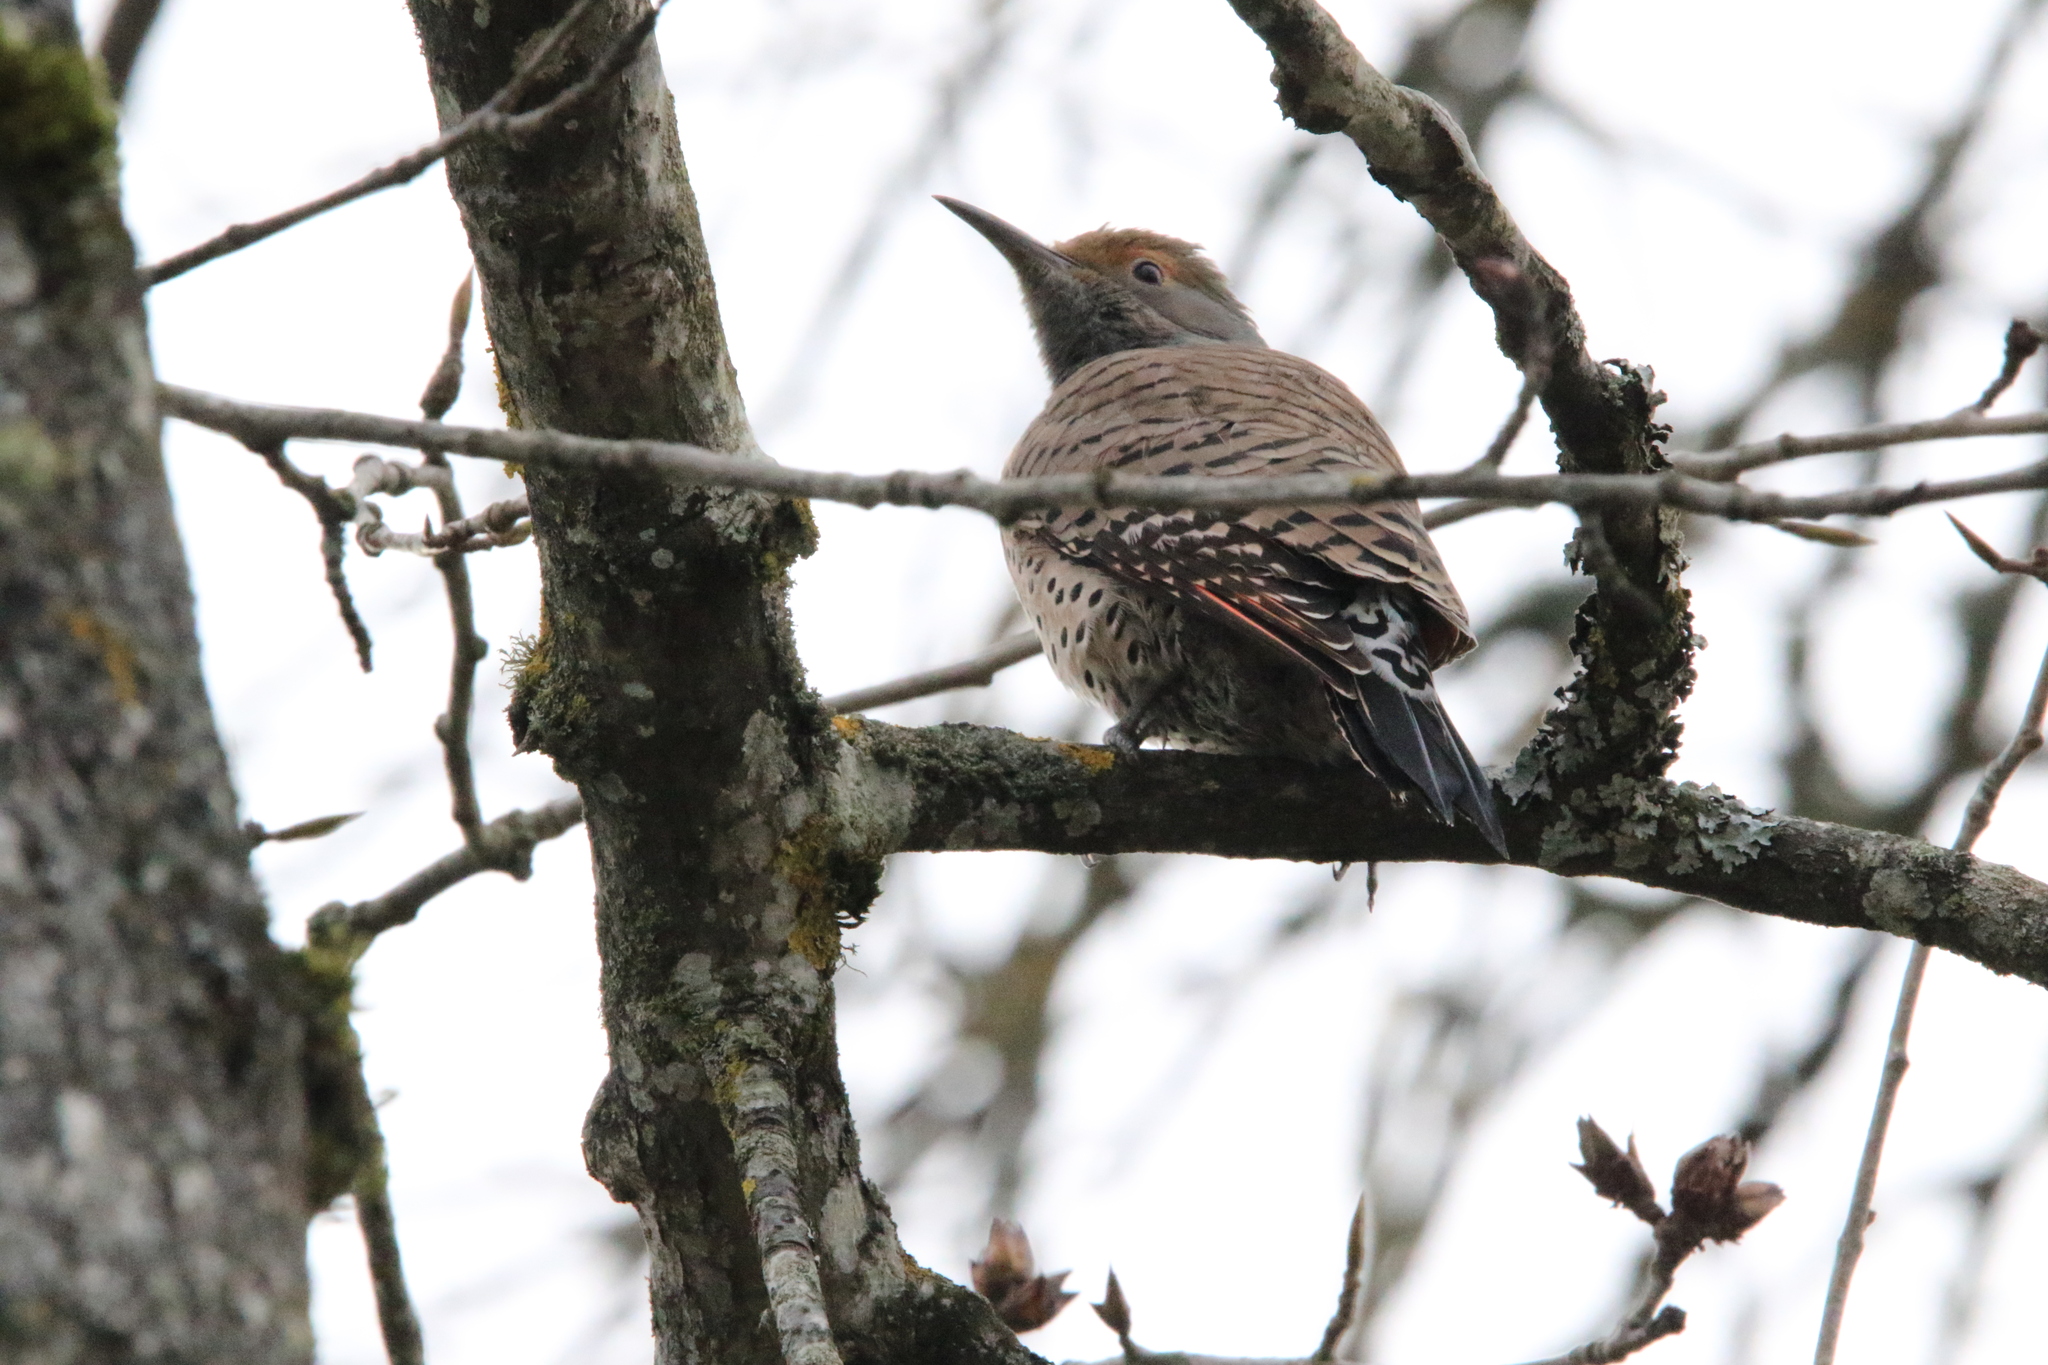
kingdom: Animalia
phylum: Chordata
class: Aves
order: Piciformes
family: Picidae
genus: Colaptes
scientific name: Colaptes auratus
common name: Northern flicker
